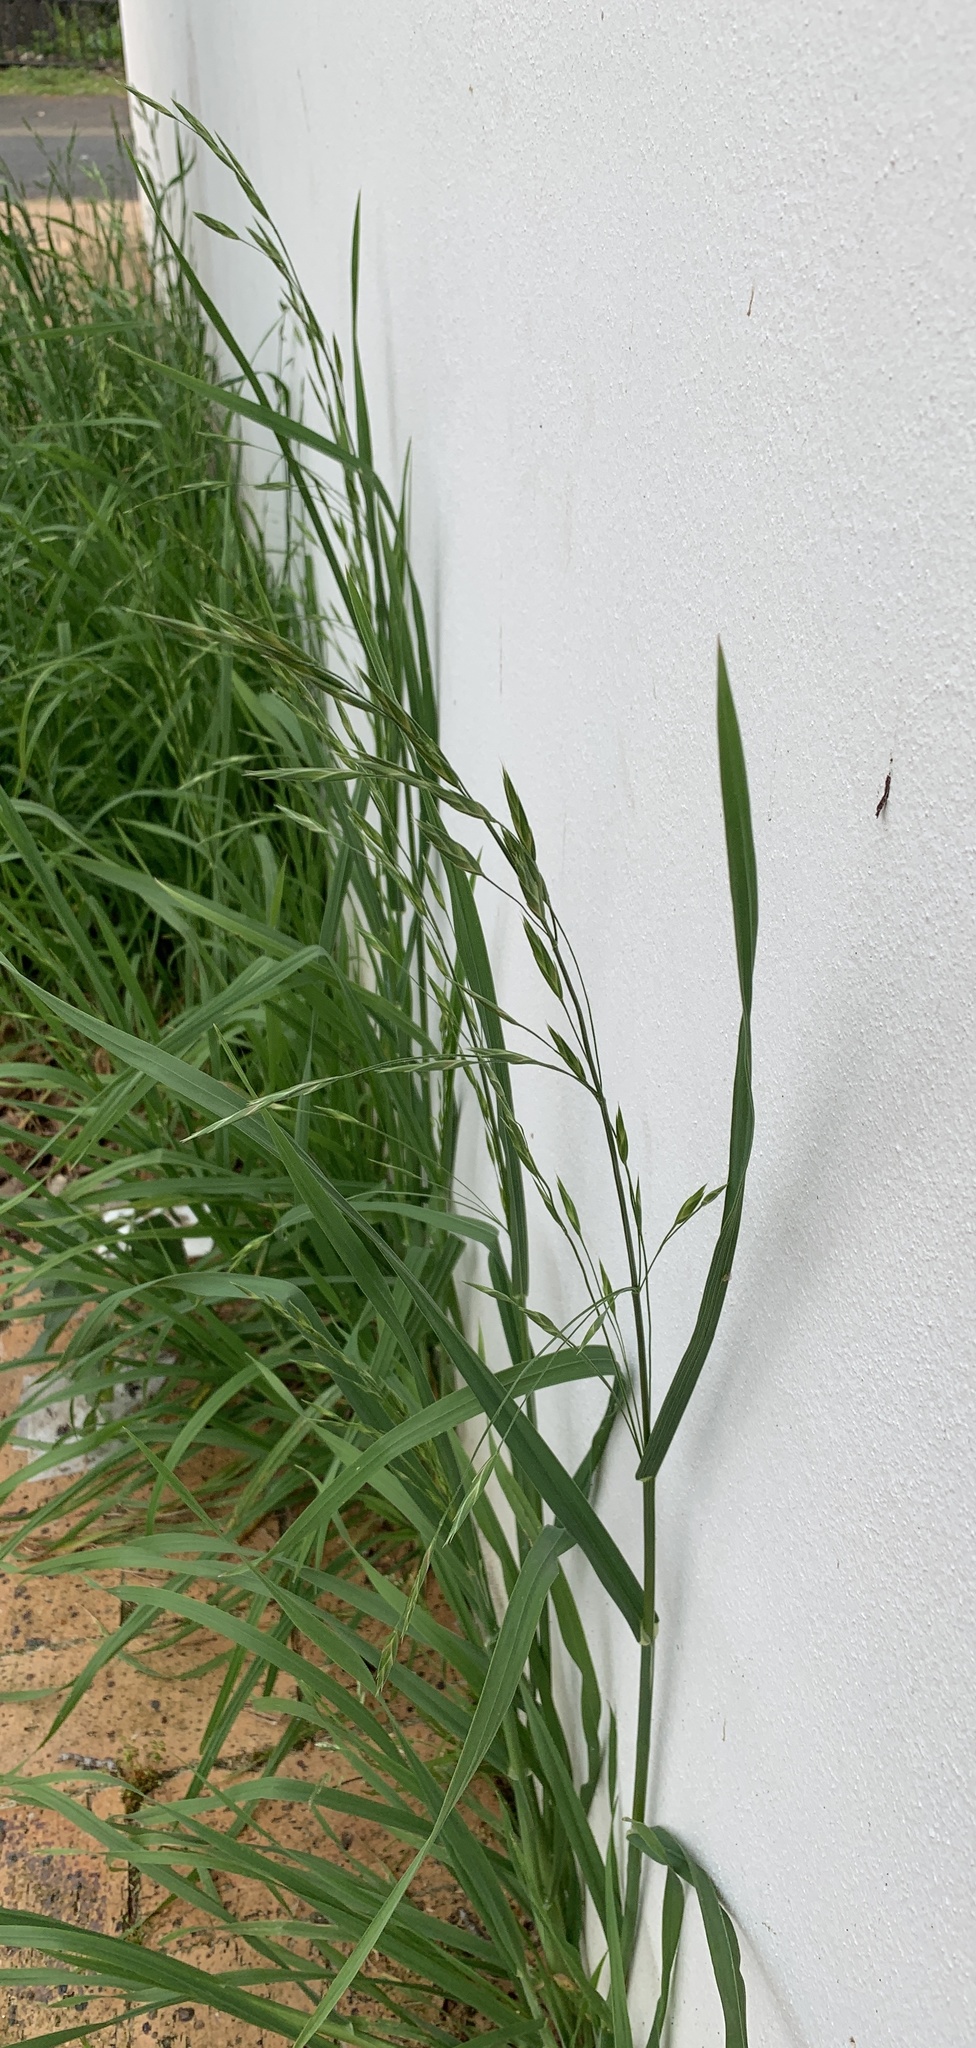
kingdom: Plantae
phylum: Tracheophyta
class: Liliopsida
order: Poales
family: Poaceae
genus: Bromus
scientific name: Bromus catharticus
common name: Rescuegrass
